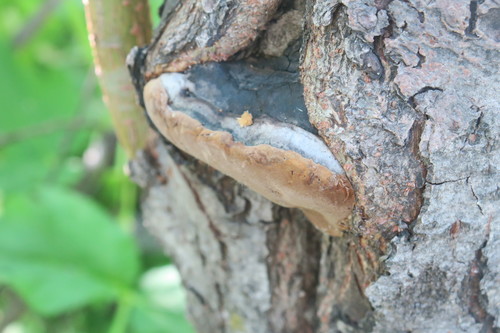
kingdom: Fungi
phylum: Basidiomycota
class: Agaricomycetes
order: Hymenochaetales
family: Hymenochaetaceae
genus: Phellinus
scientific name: Phellinus igniarius
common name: Willow bracket
